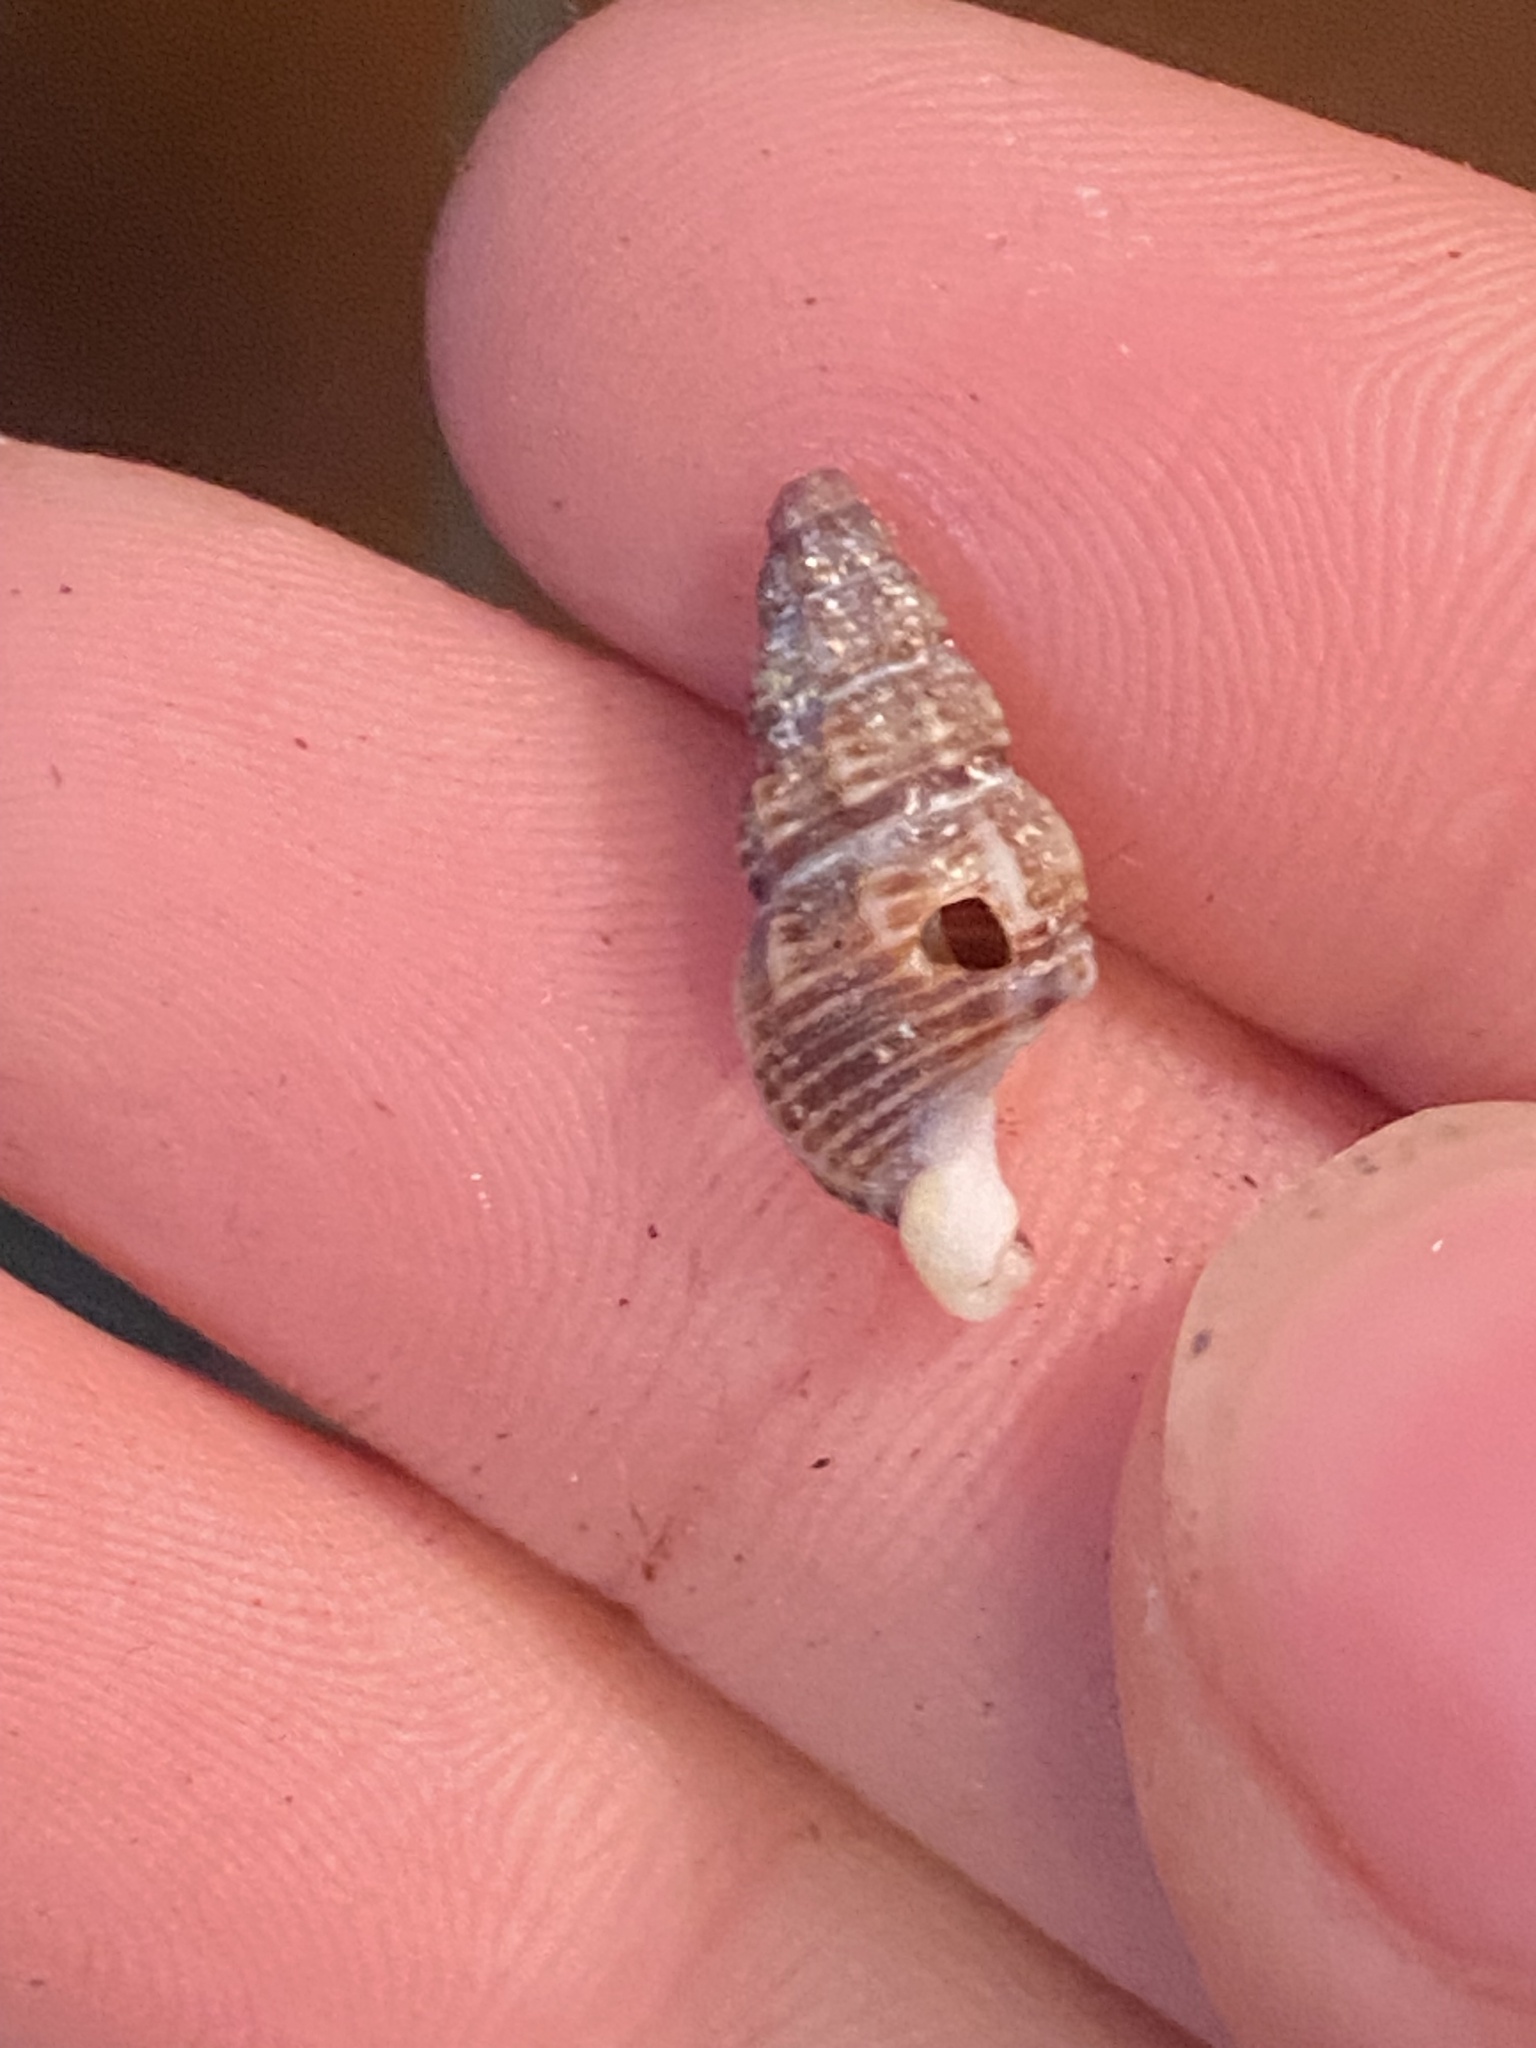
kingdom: Animalia
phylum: Mollusca
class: Gastropoda
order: Neogastropoda
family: Nassariidae
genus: Nassarius
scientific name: Nassarius mendicus
